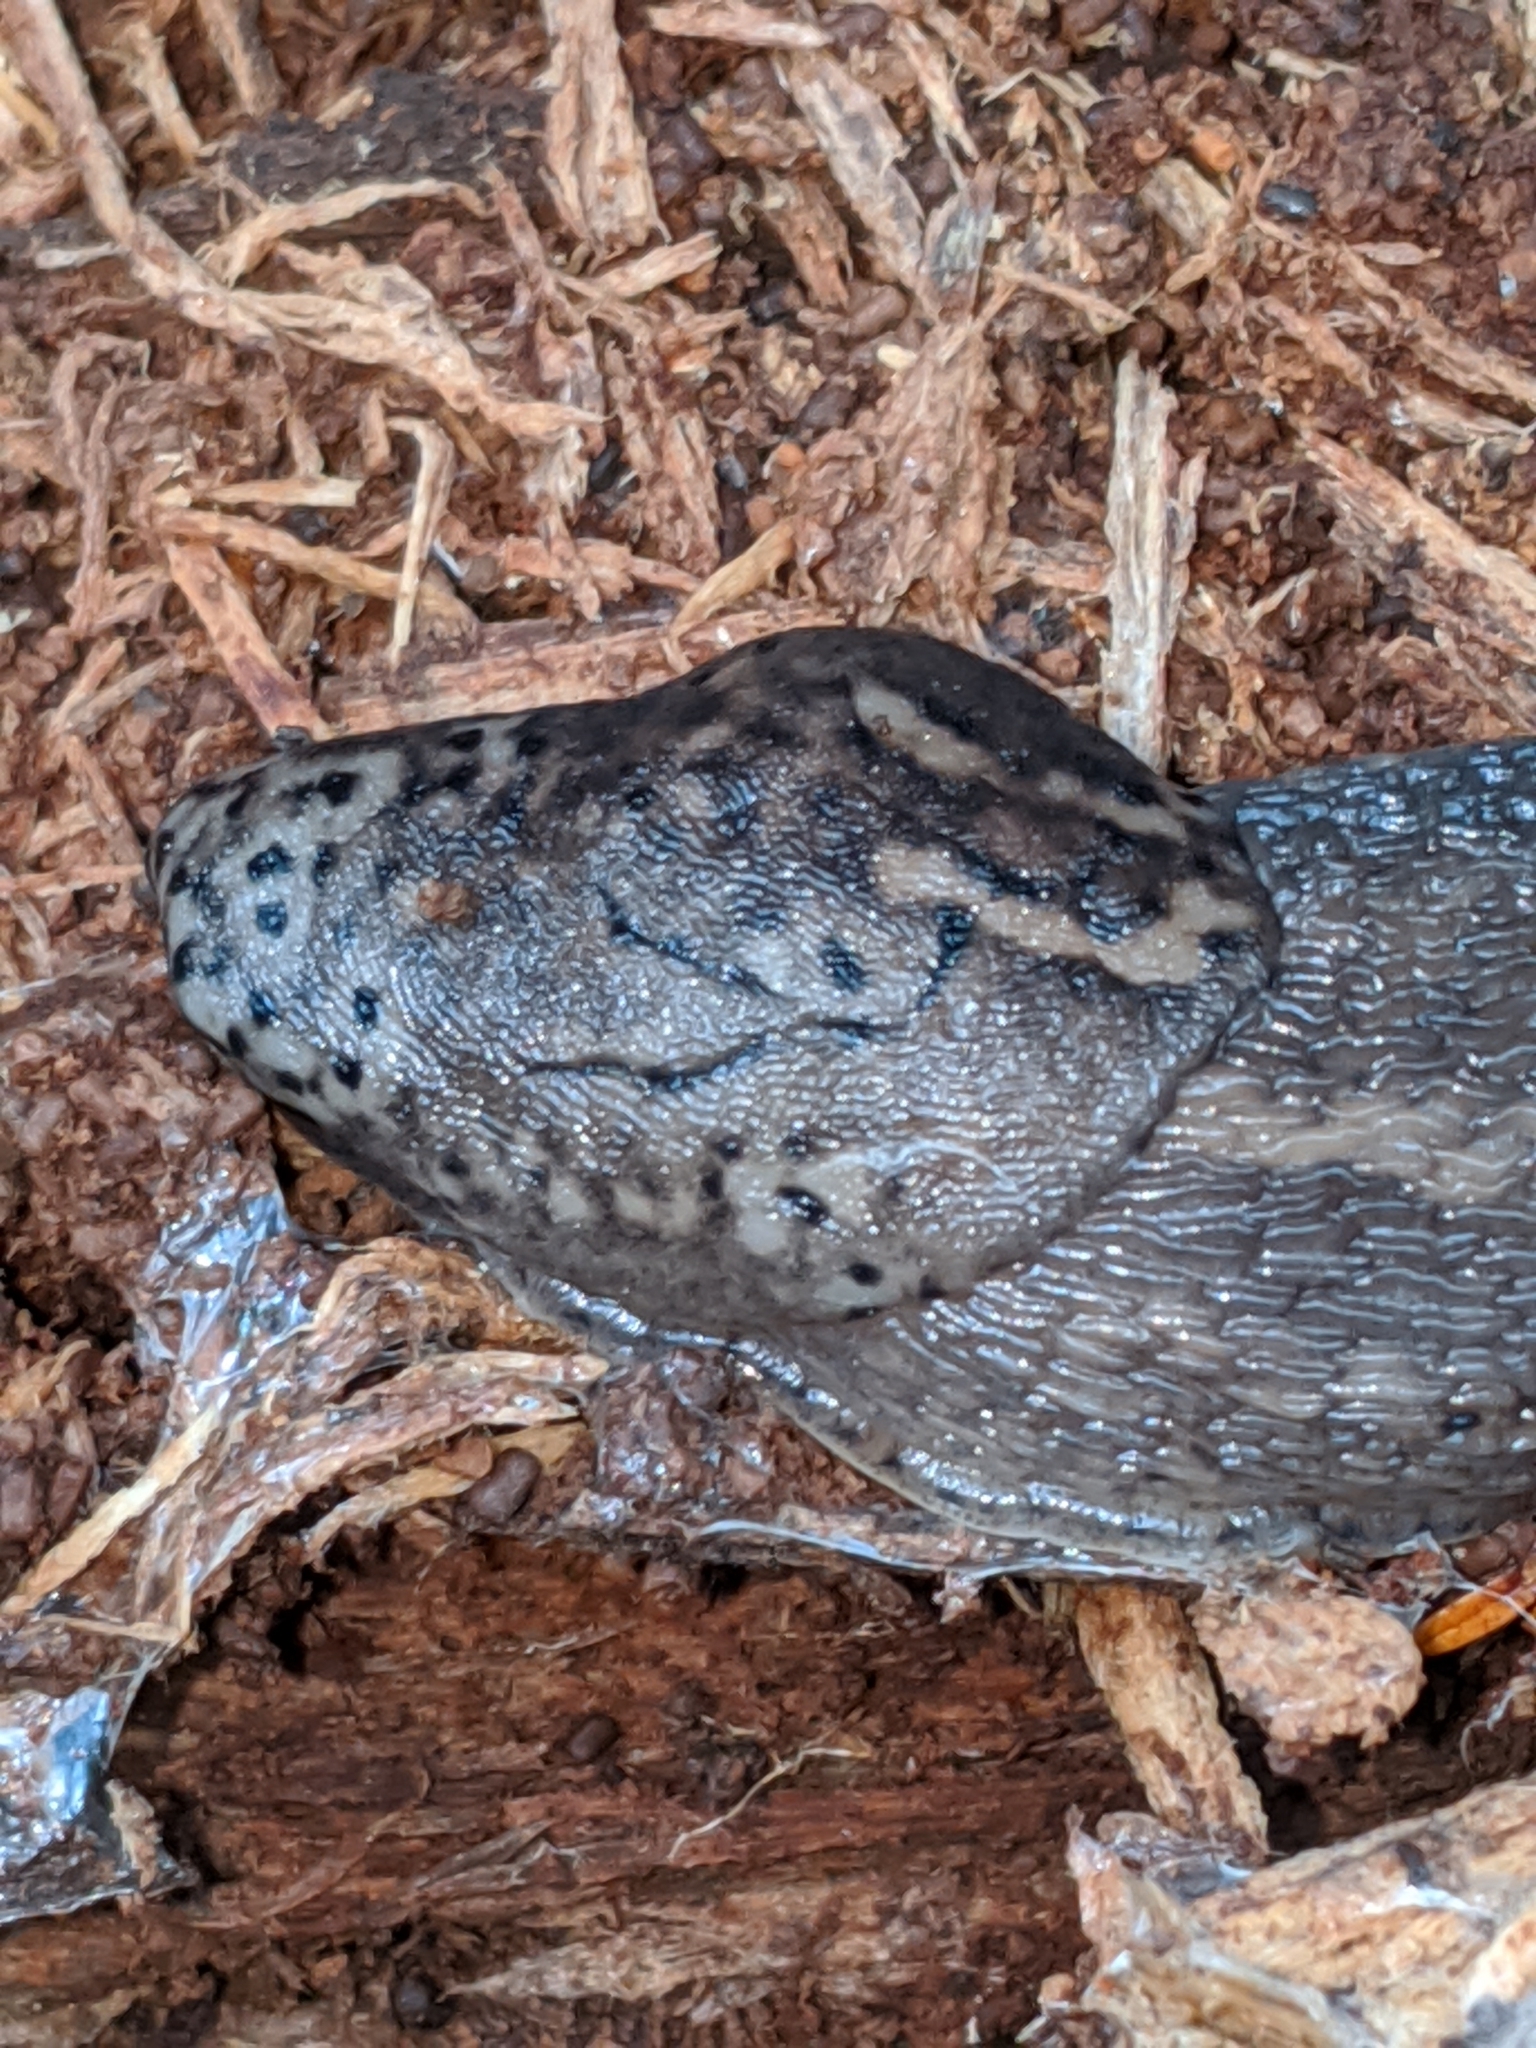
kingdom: Animalia
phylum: Mollusca
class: Gastropoda
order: Stylommatophora
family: Limacidae
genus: Limax
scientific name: Limax maximus
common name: Great grey slug
